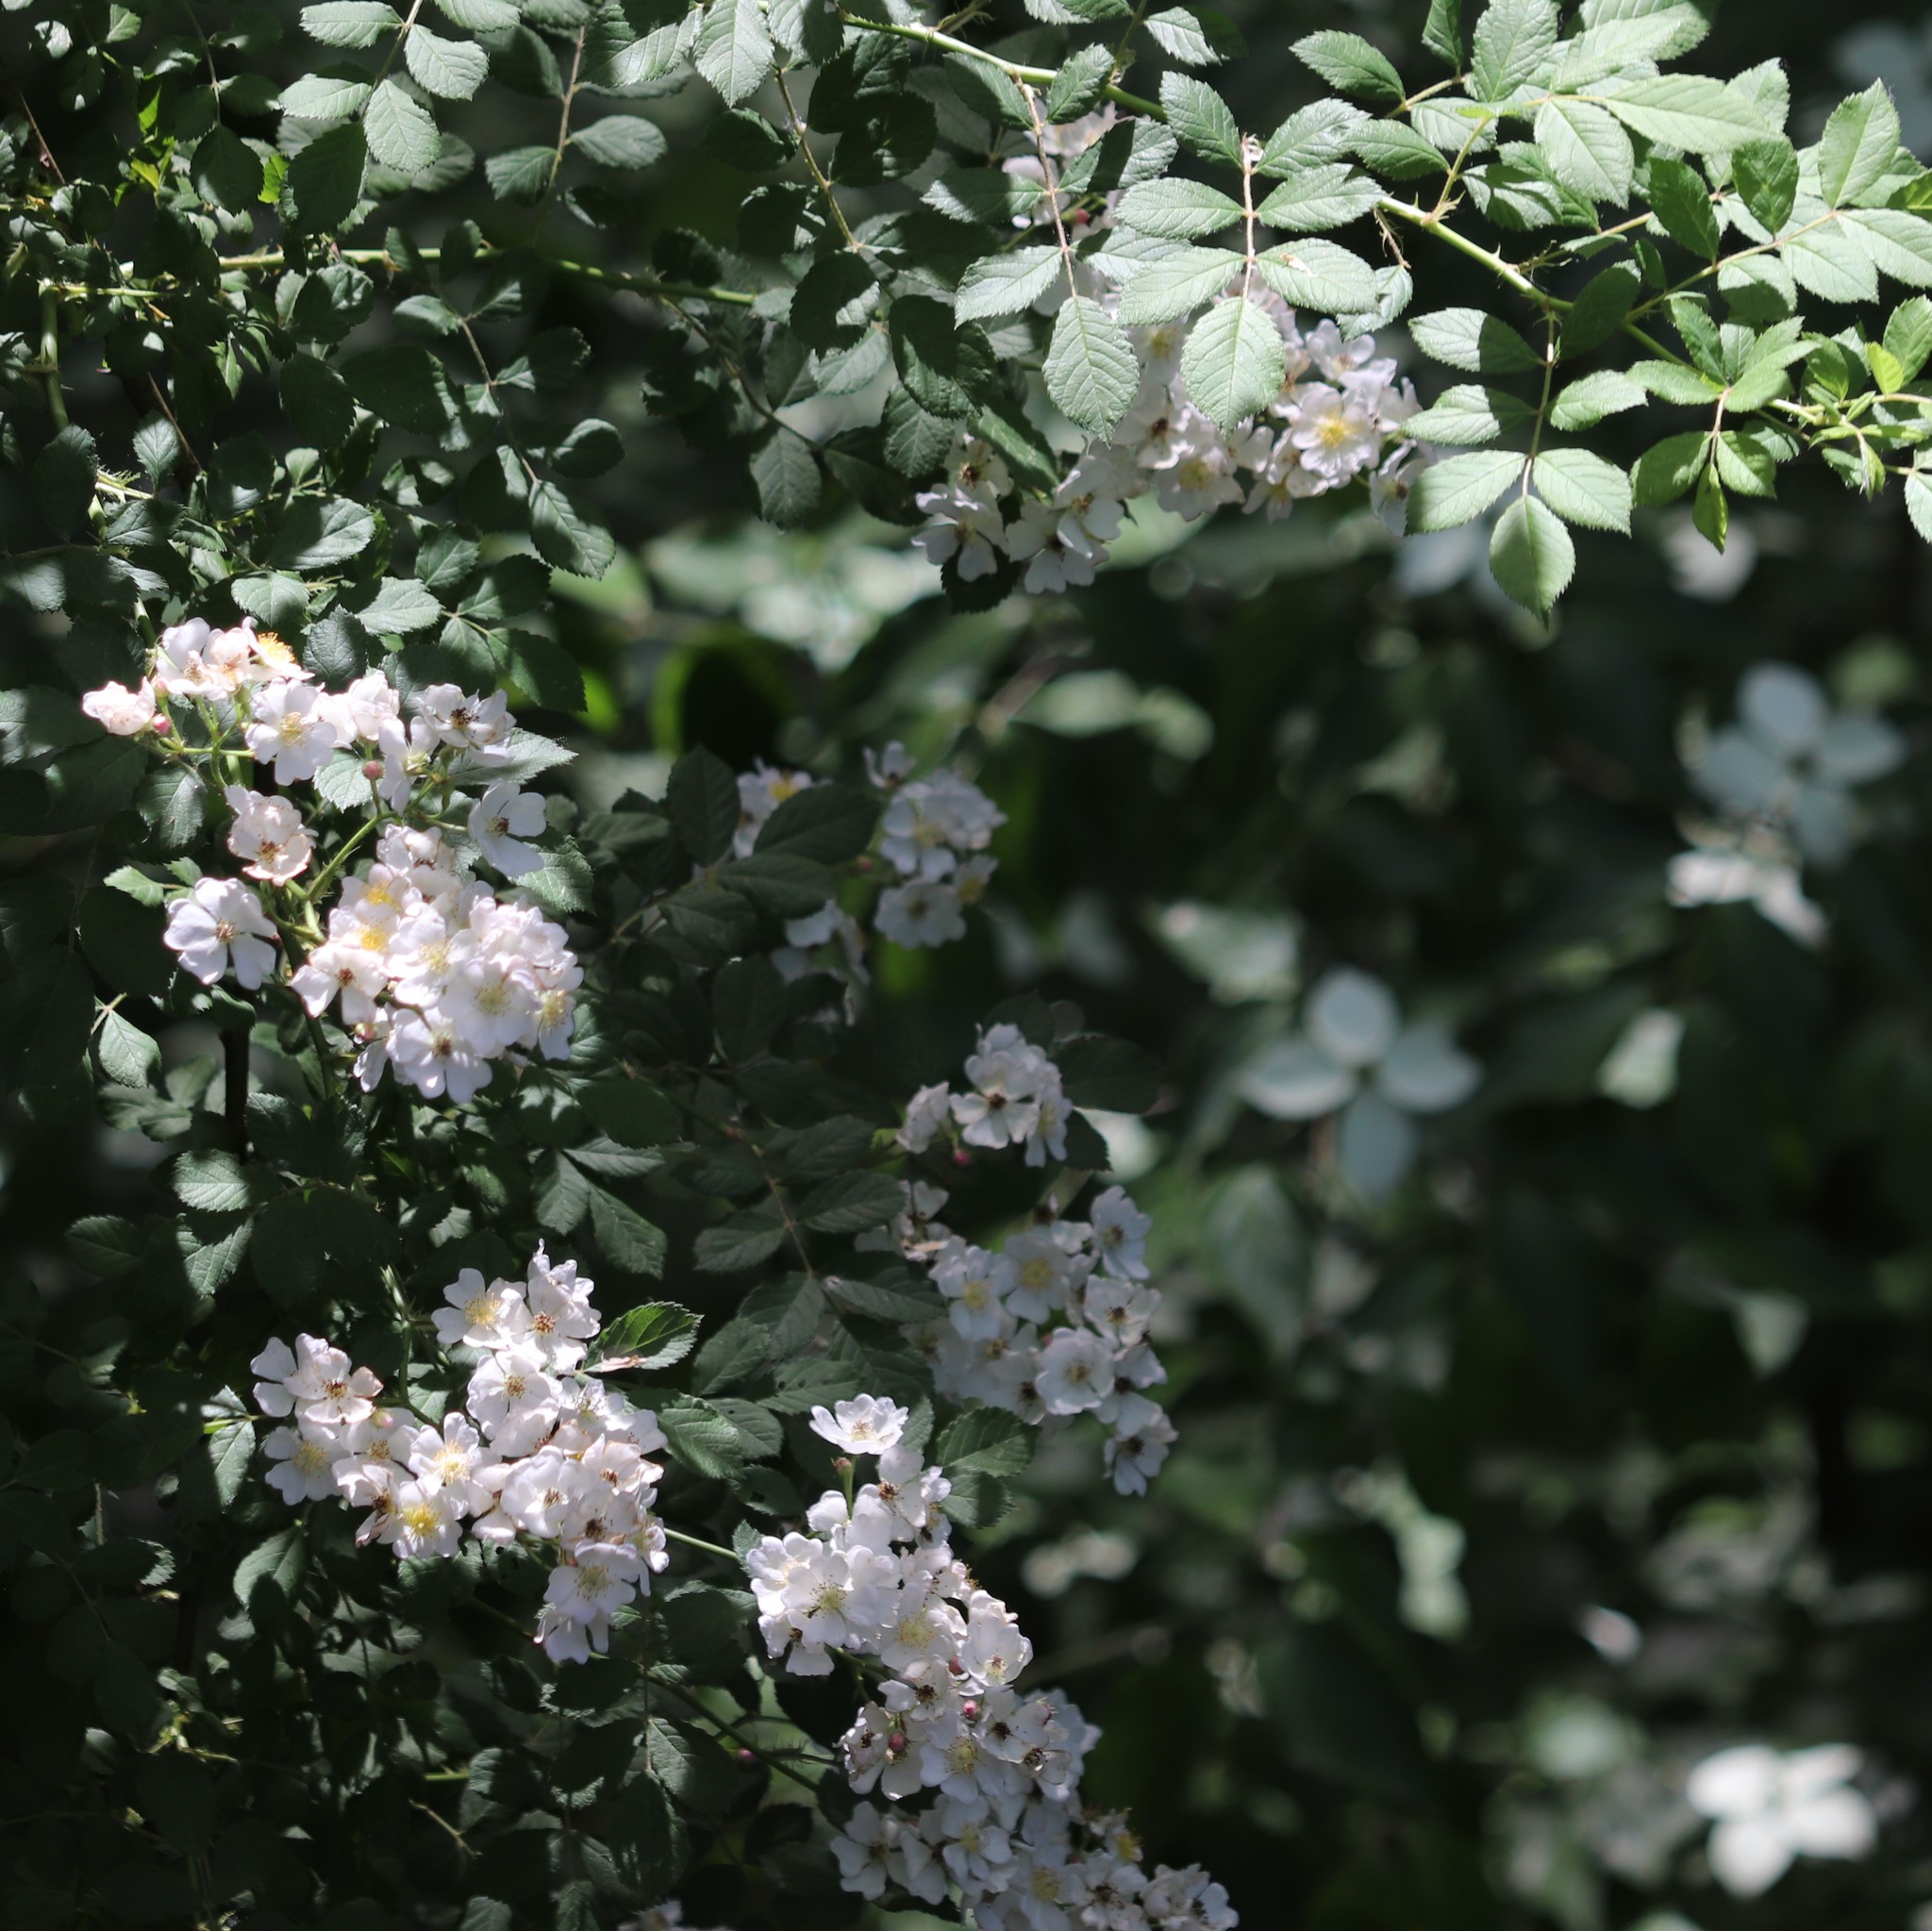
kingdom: Plantae
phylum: Tracheophyta
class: Magnoliopsida
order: Rosales
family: Rosaceae
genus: Rosa
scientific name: Rosa multiflora
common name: Multiflora rose
